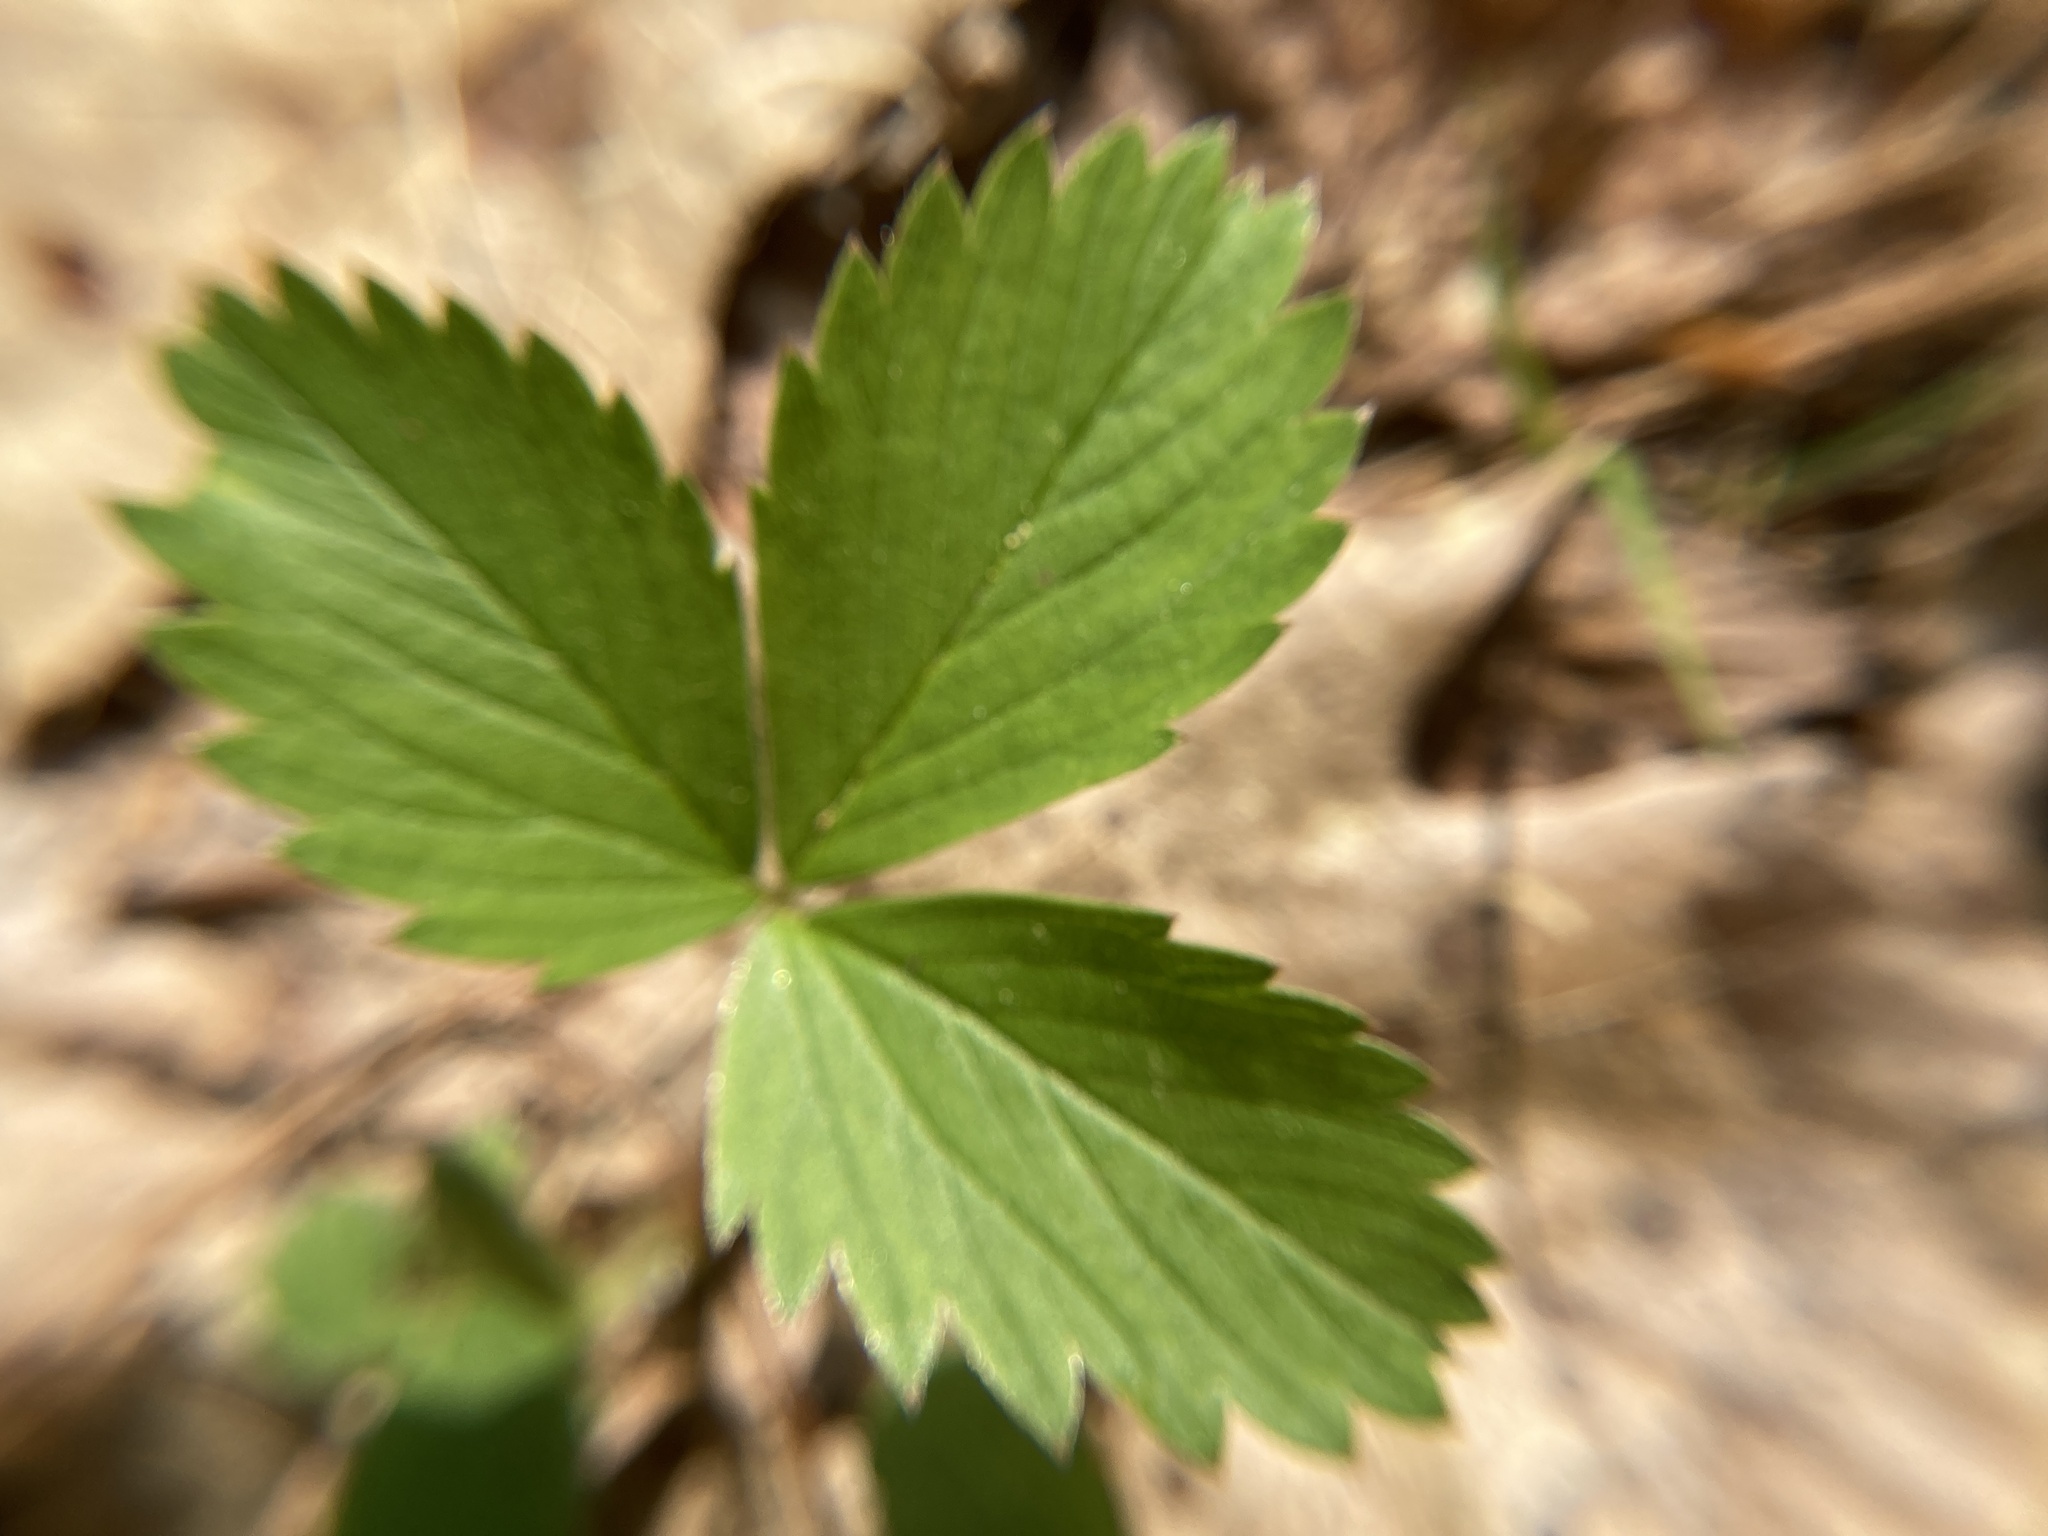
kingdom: Plantae
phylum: Tracheophyta
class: Magnoliopsida
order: Rosales
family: Rosaceae
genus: Fragaria
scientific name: Fragaria virginiana
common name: Thickleaved wild strawberry
